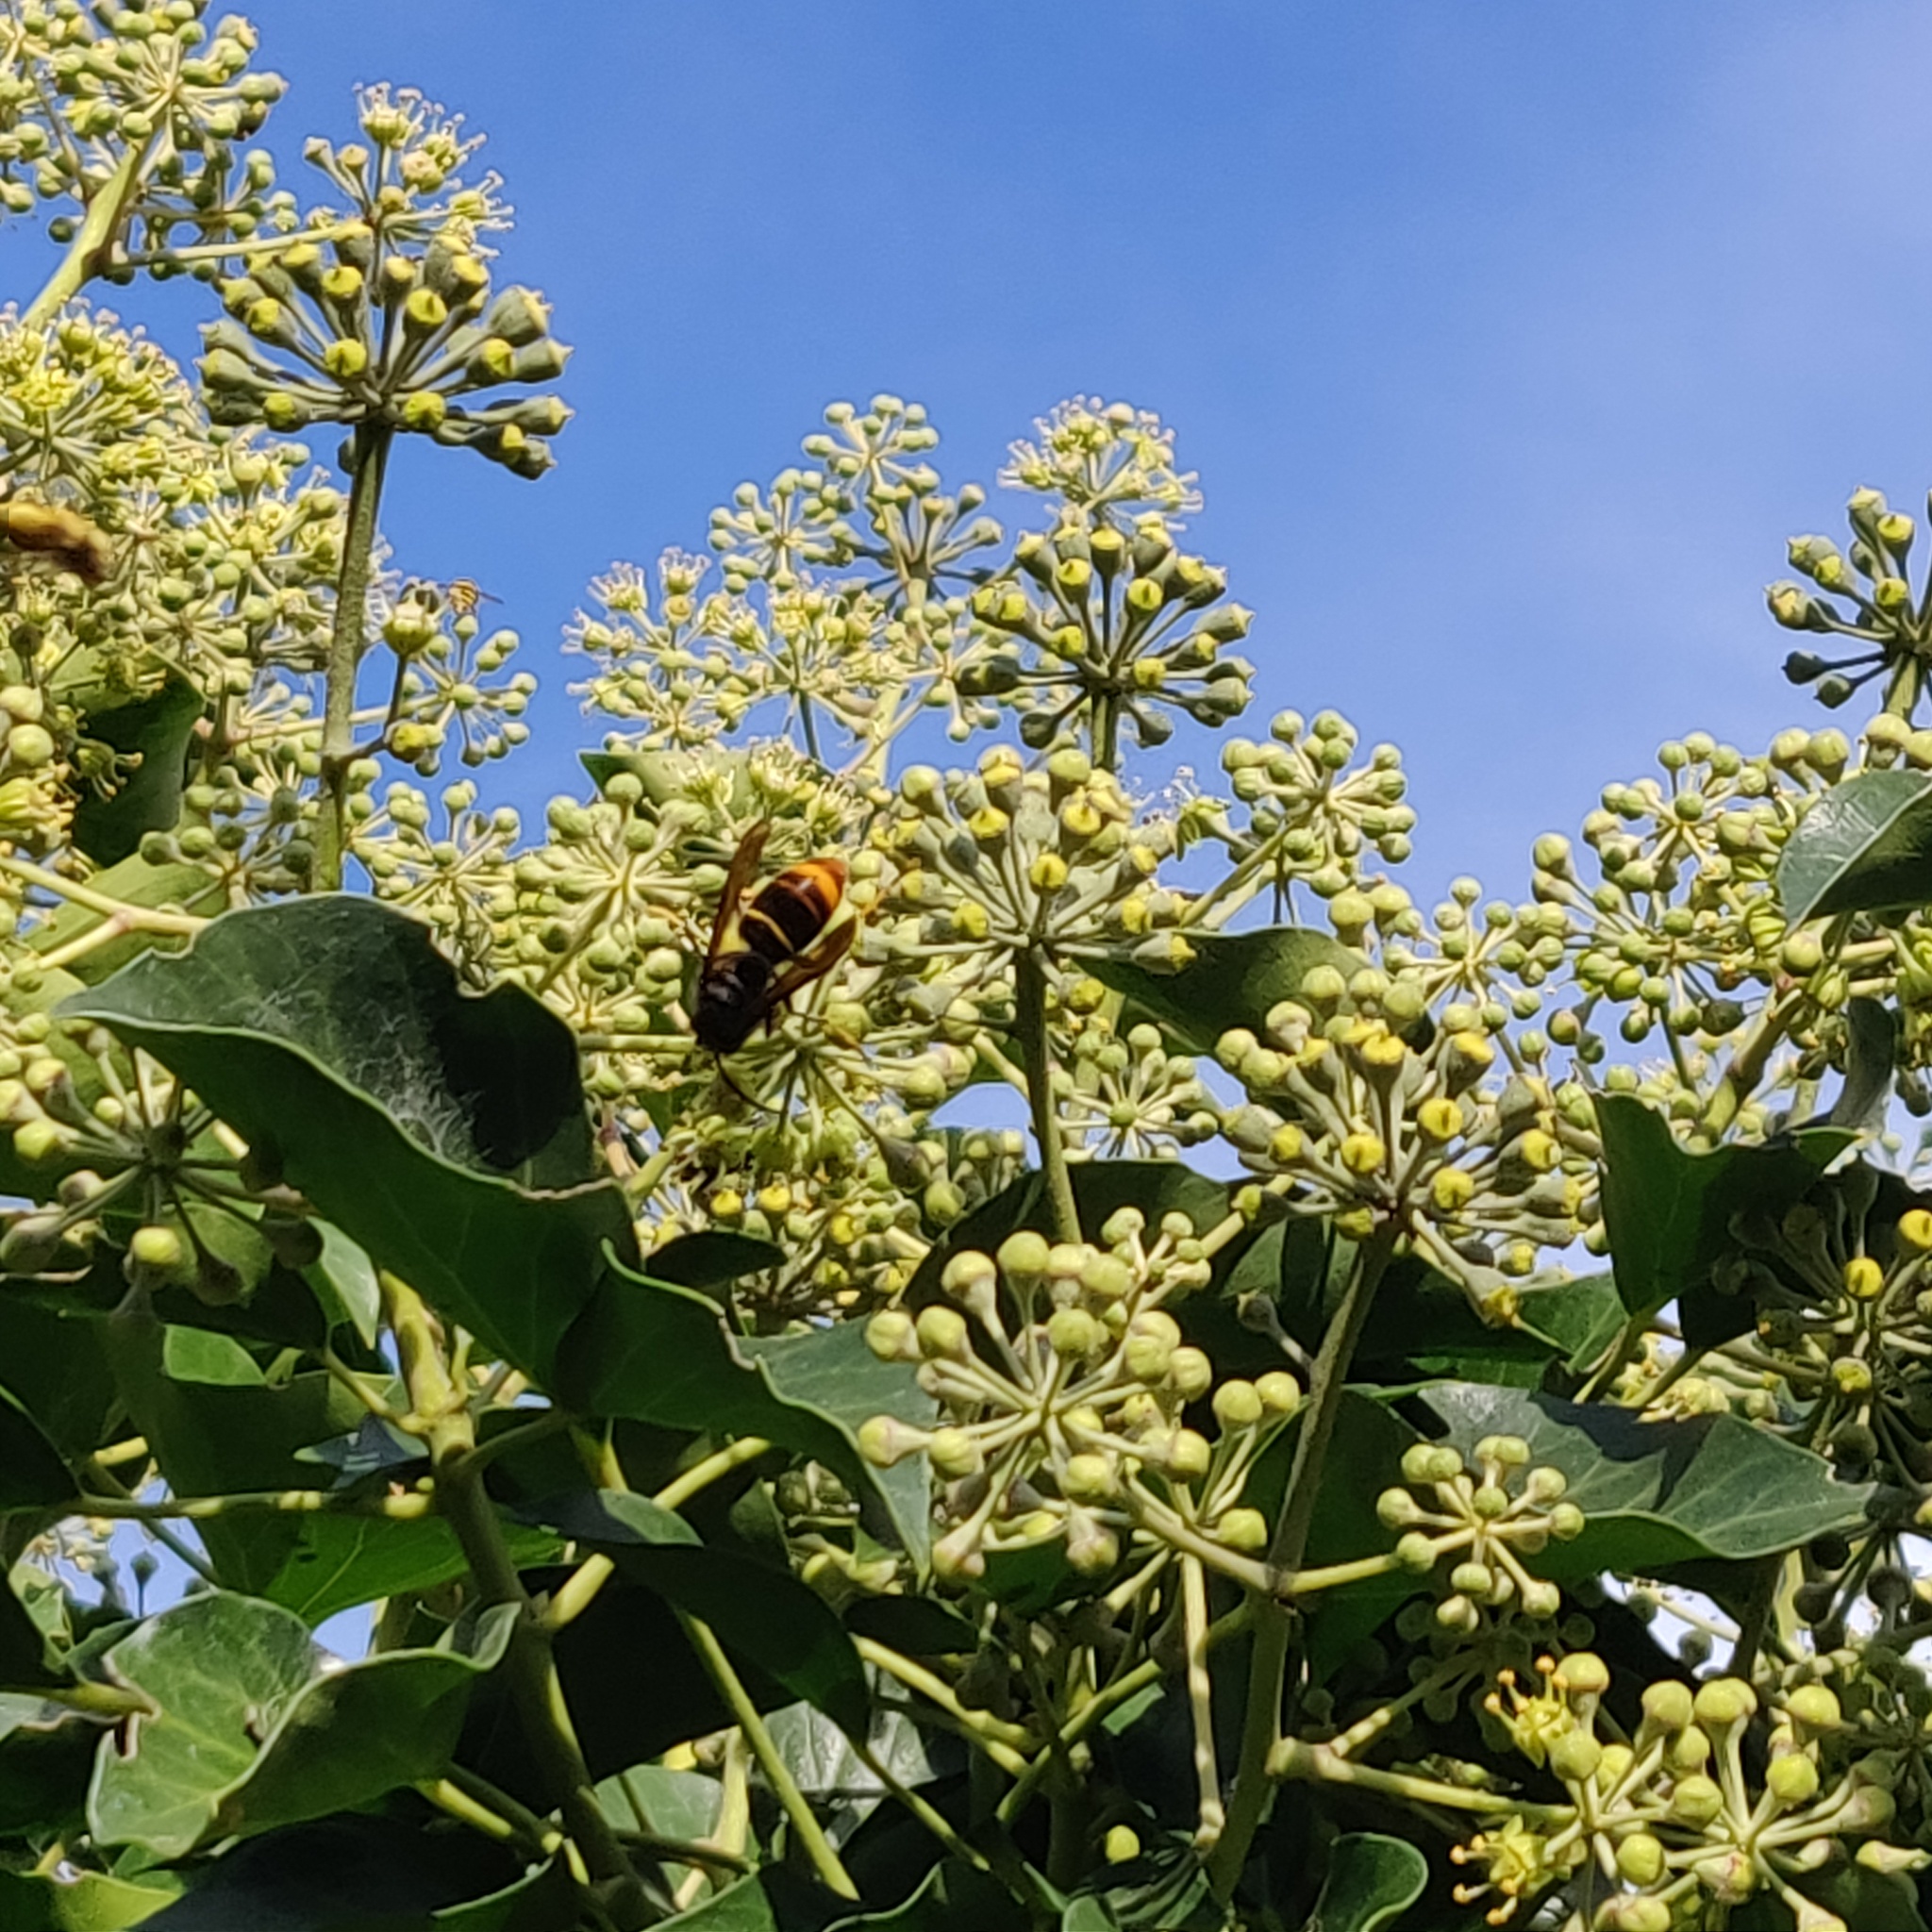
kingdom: Animalia
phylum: Arthropoda
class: Insecta
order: Hymenoptera
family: Vespidae
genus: Vespa
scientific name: Vespa velutina
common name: Asian hornet
